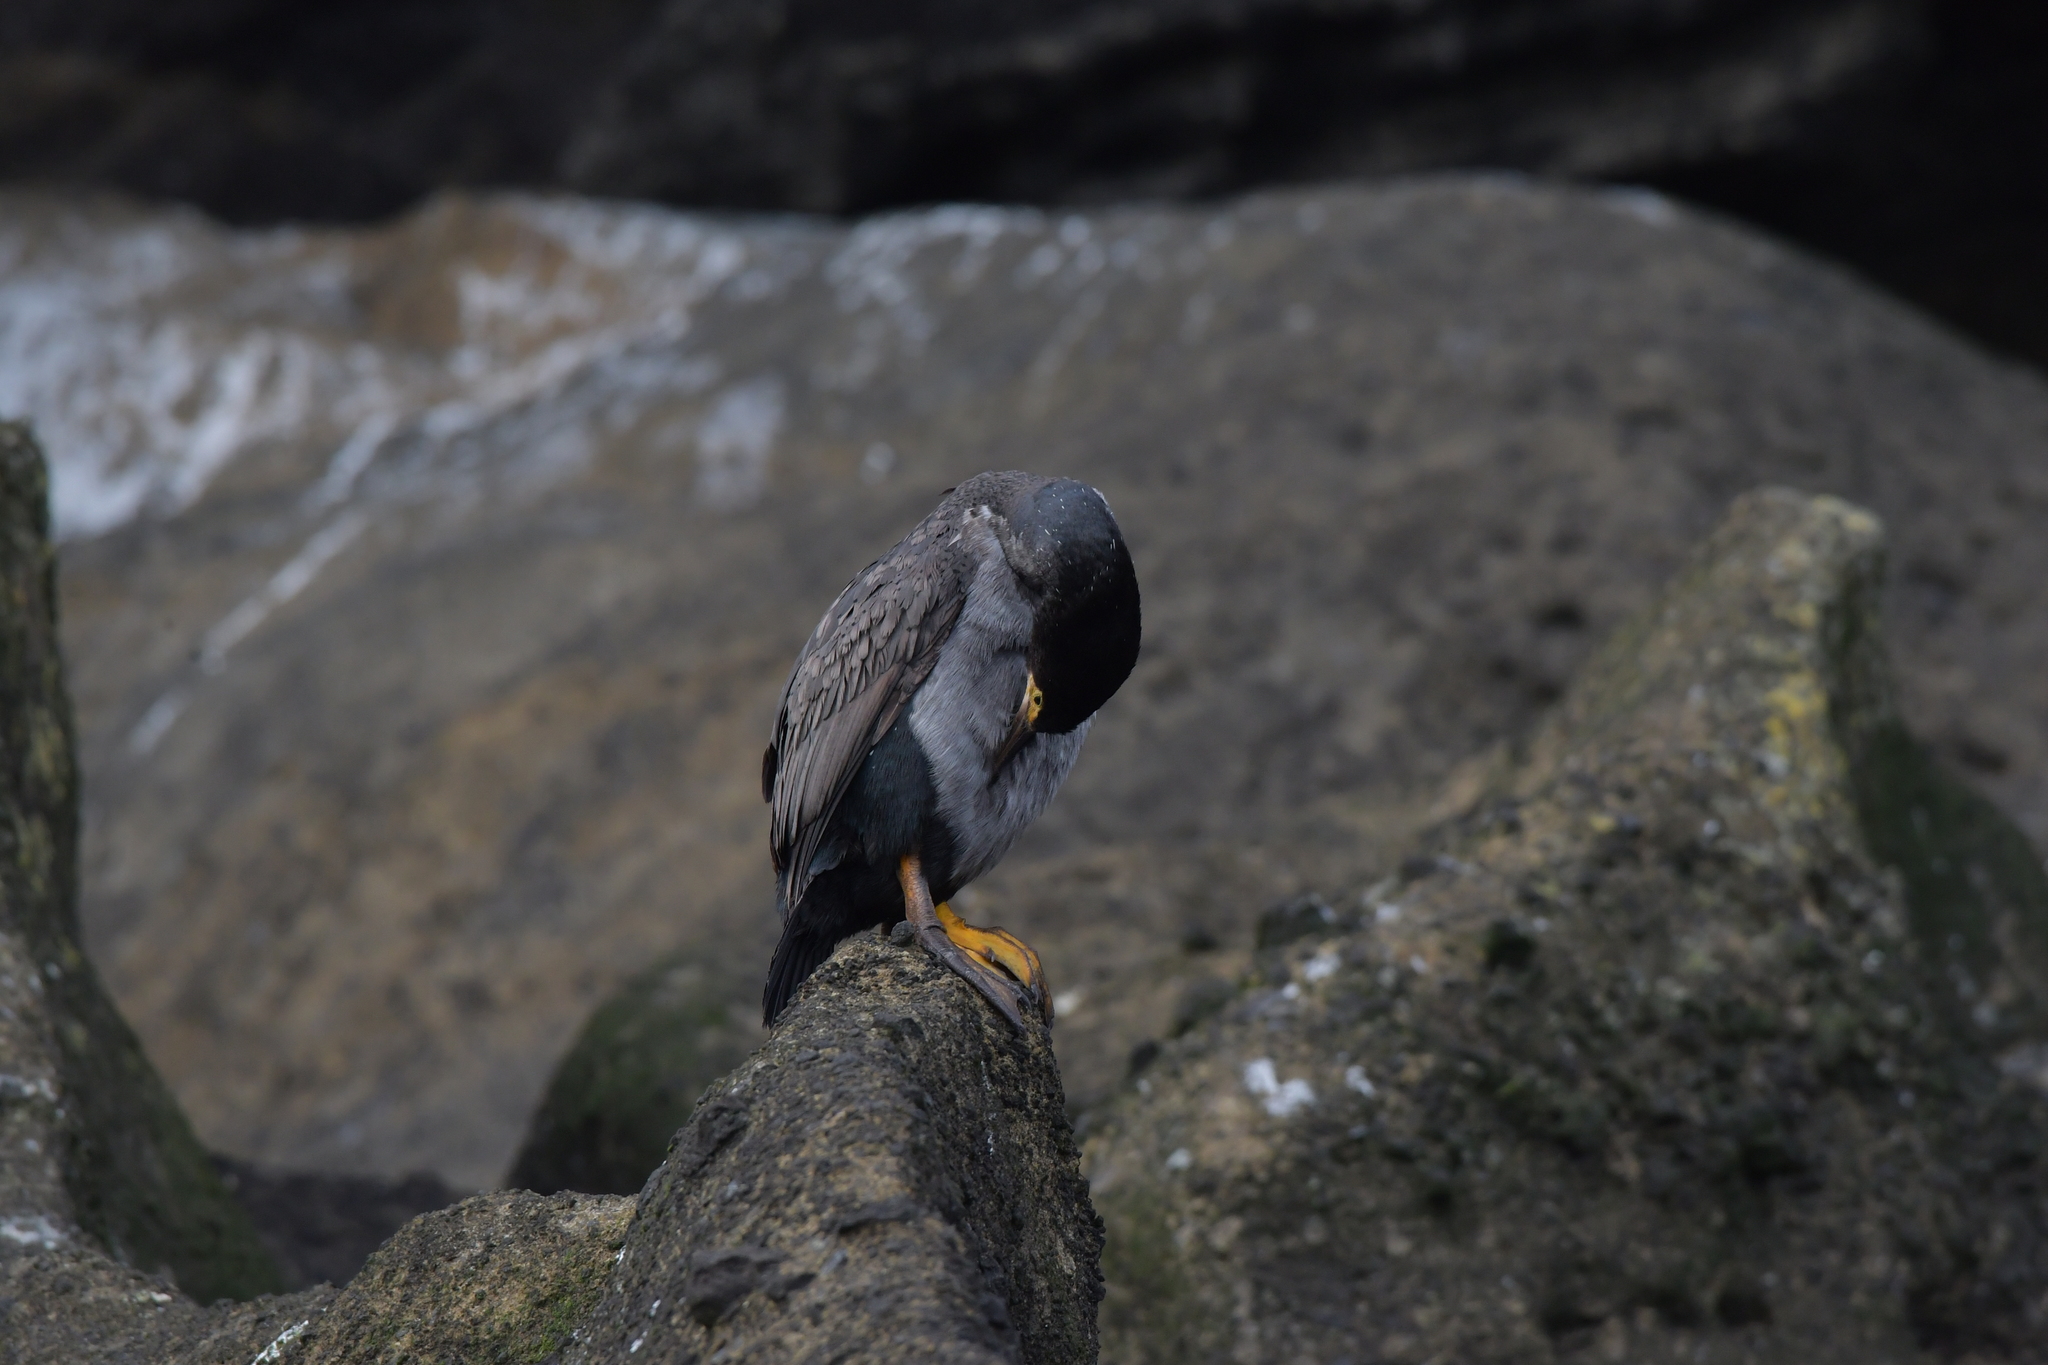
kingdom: Animalia
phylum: Chordata
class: Aves
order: Suliformes
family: Phalacrocoracidae
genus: Phalacrocorax
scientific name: Phalacrocorax featherstoni
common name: Pitt shag
